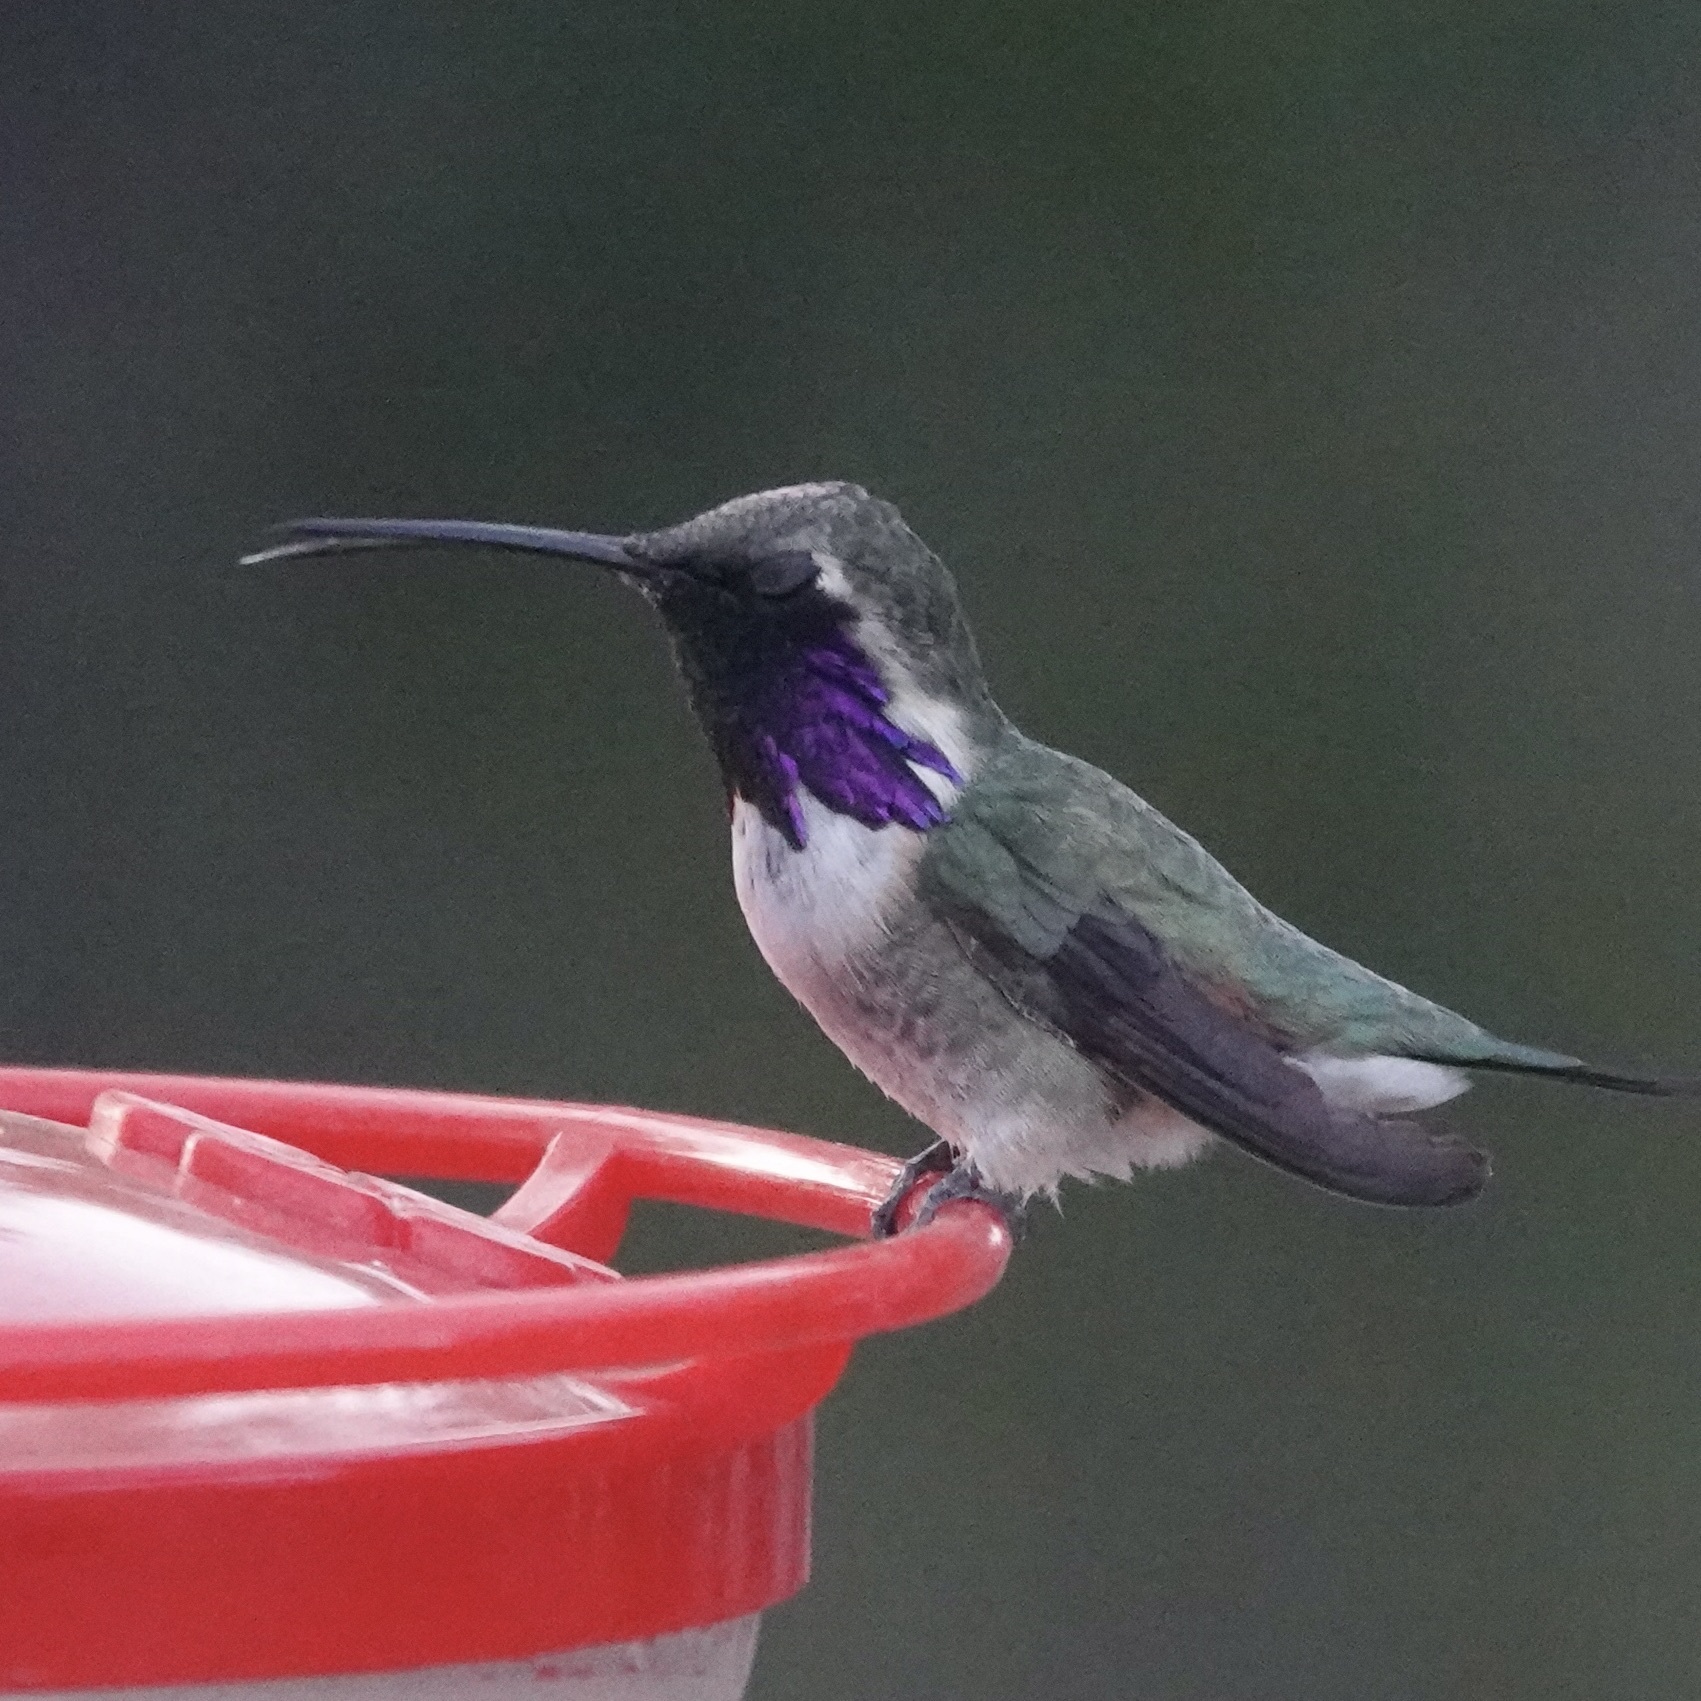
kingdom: Animalia
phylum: Chordata
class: Aves
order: Apodiformes
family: Trochilidae
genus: Calothorax
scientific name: Calothorax lucifer
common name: Lucifer sheartail
